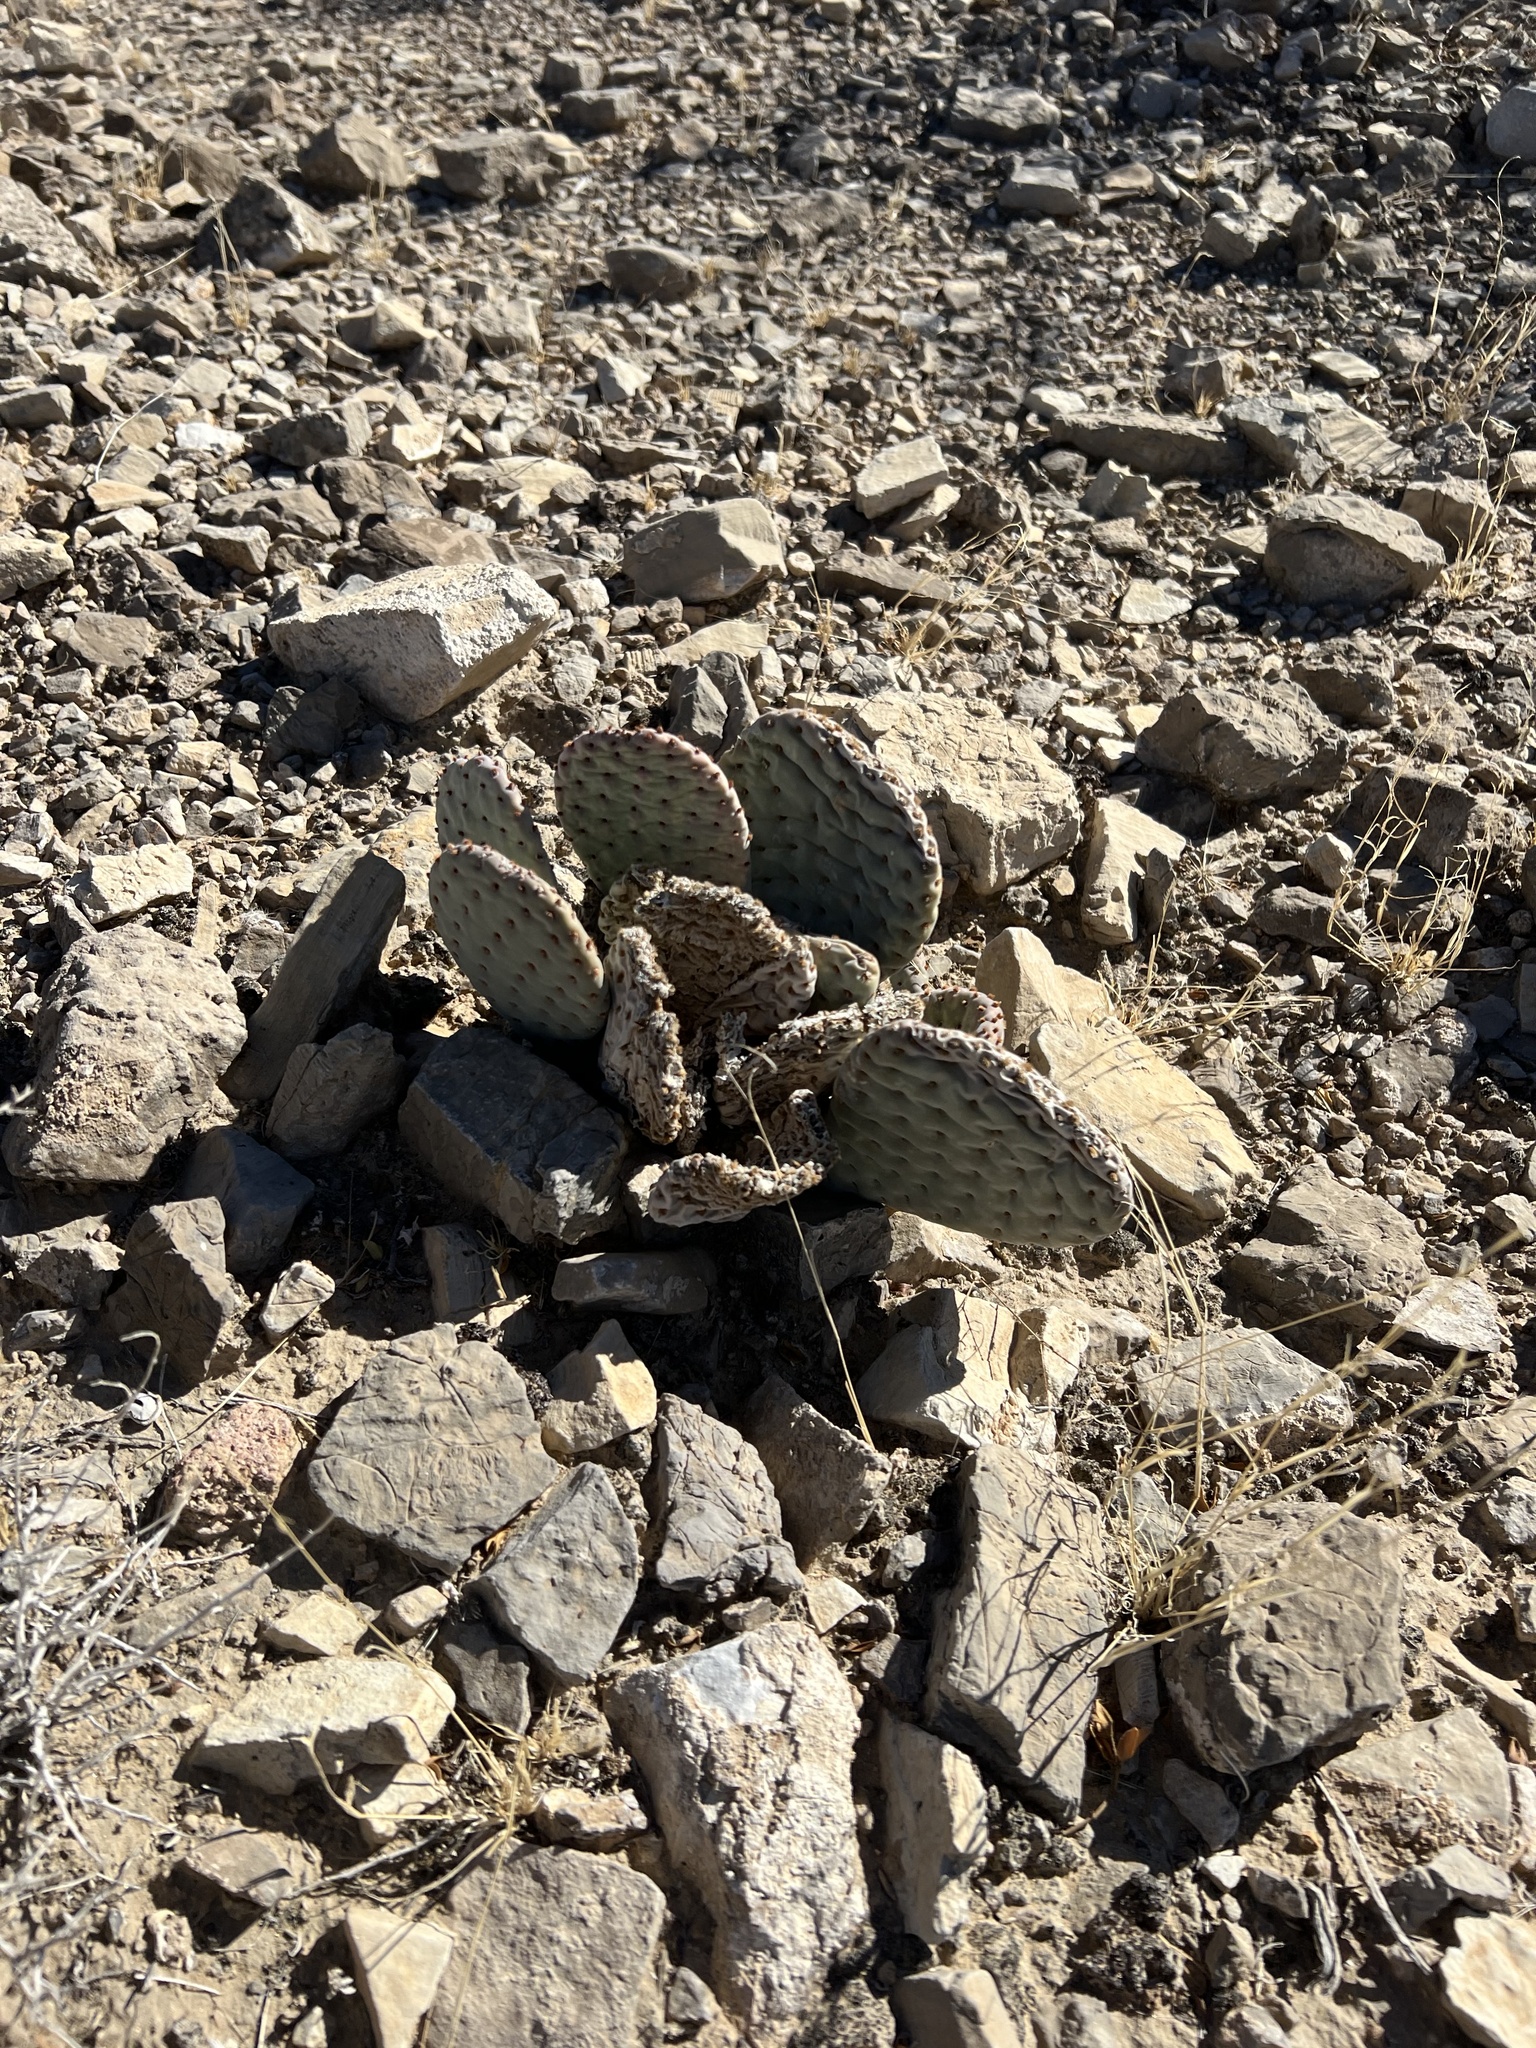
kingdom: Plantae
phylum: Tracheophyta
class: Magnoliopsida
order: Caryophyllales
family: Cactaceae
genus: Opuntia
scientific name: Opuntia basilaris
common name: Beavertail prickly-pear
